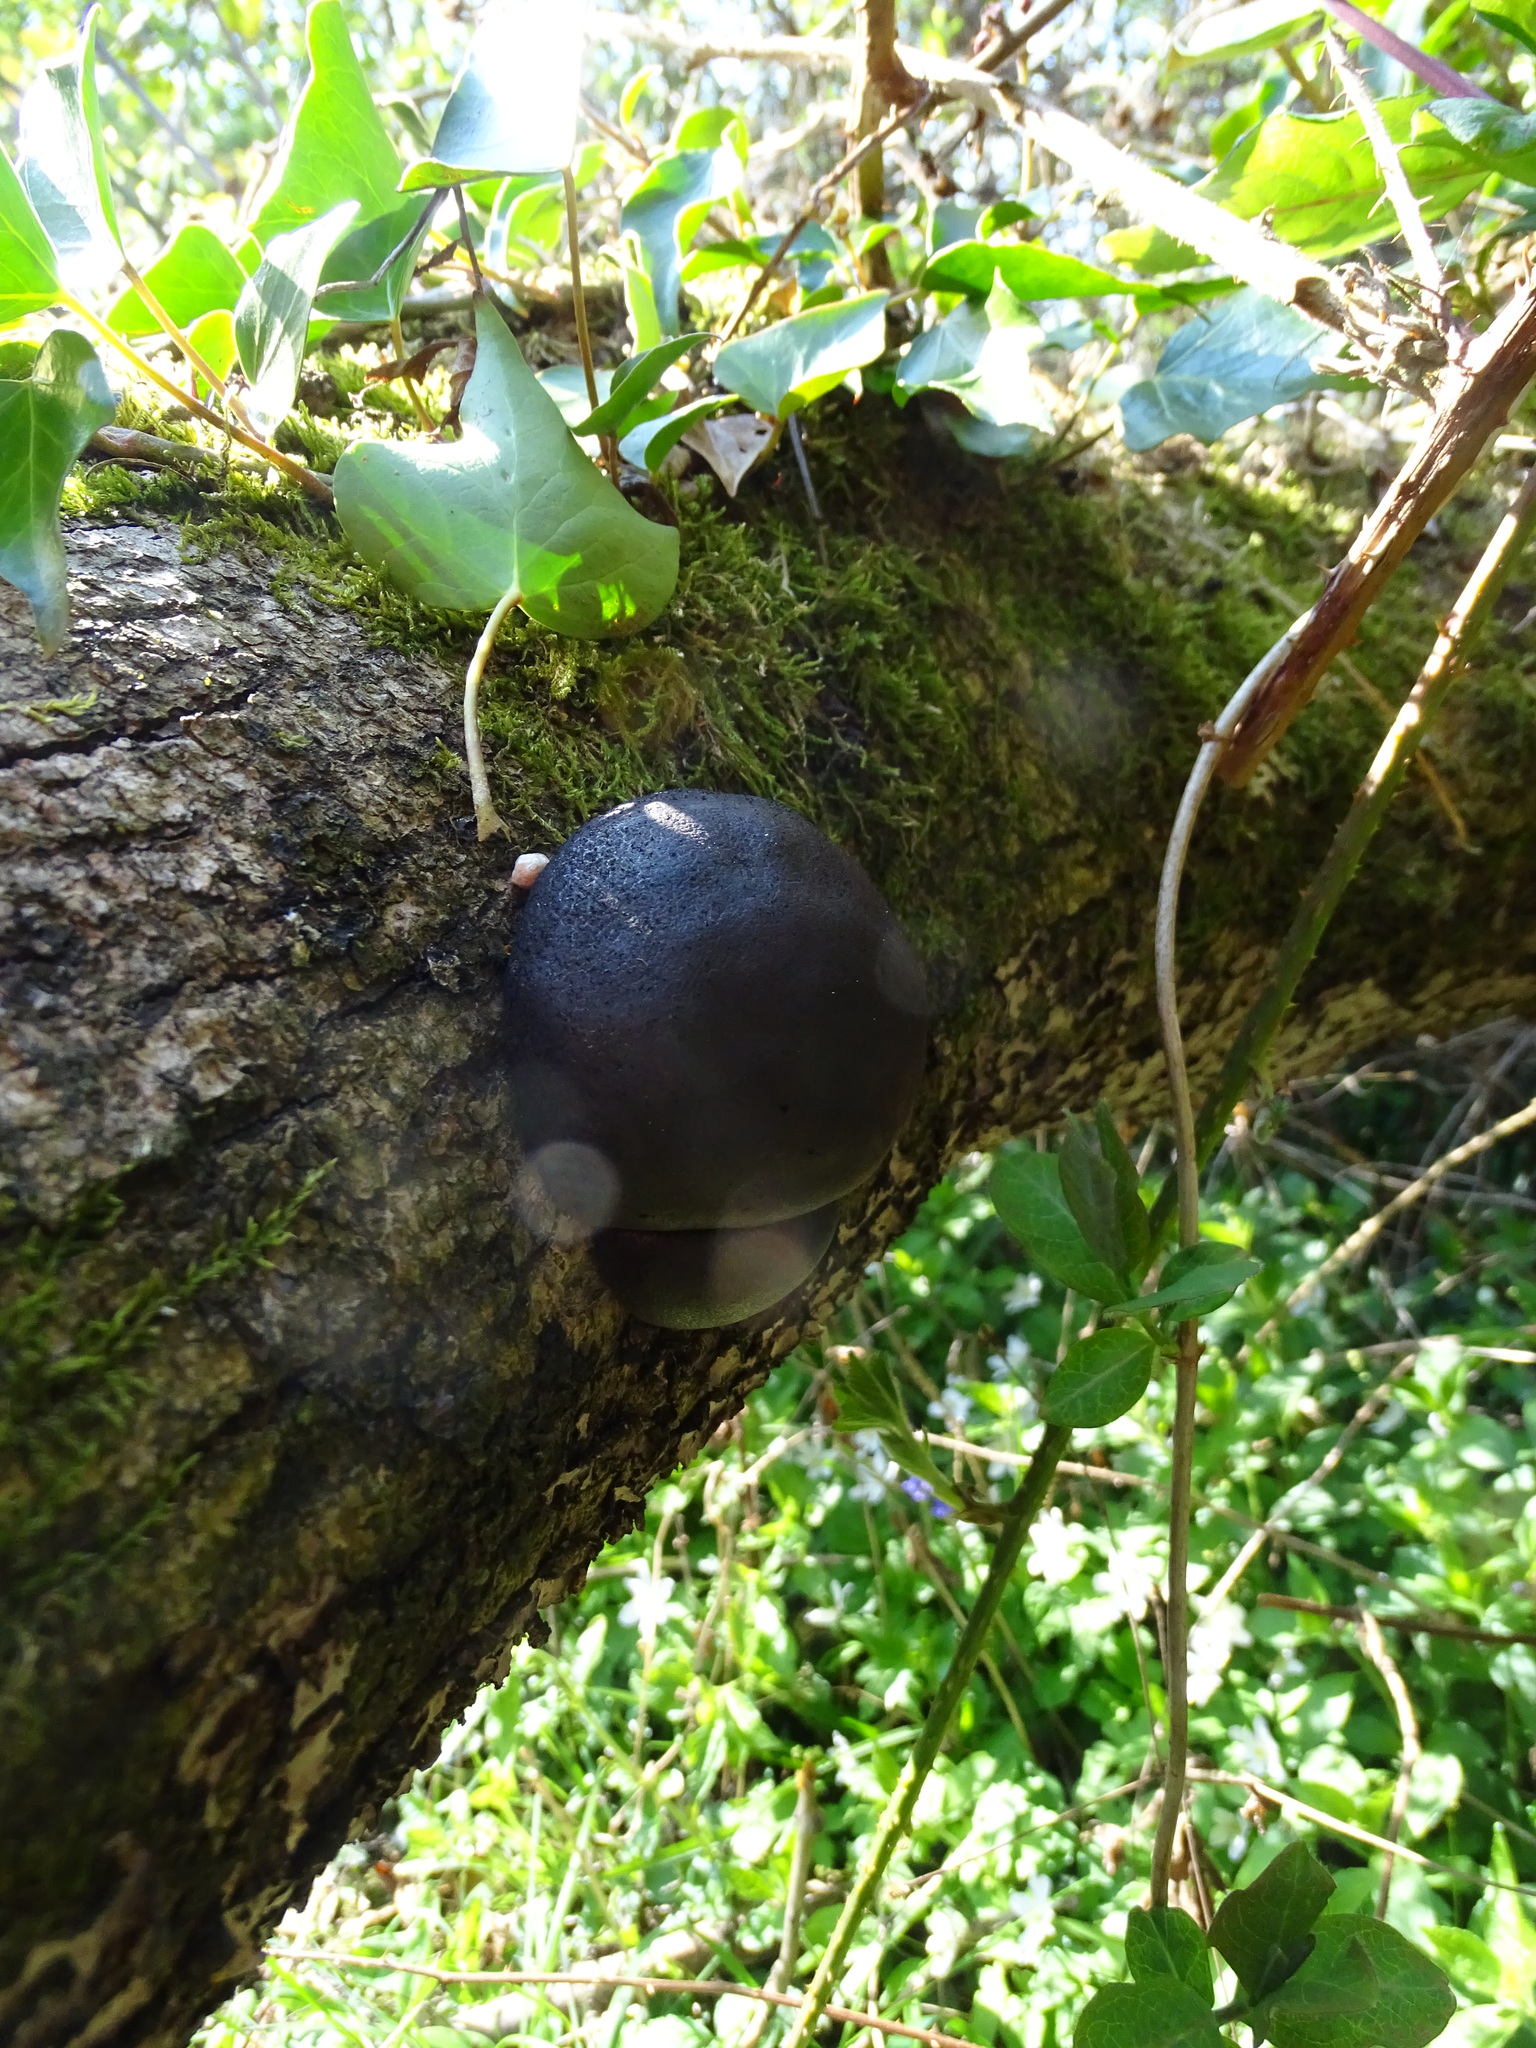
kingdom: Fungi
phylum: Ascomycota
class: Sordariomycetes
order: Xylariales
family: Hypoxylaceae
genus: Daldinia
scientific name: Daldinia concentrica
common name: Cramp balls
